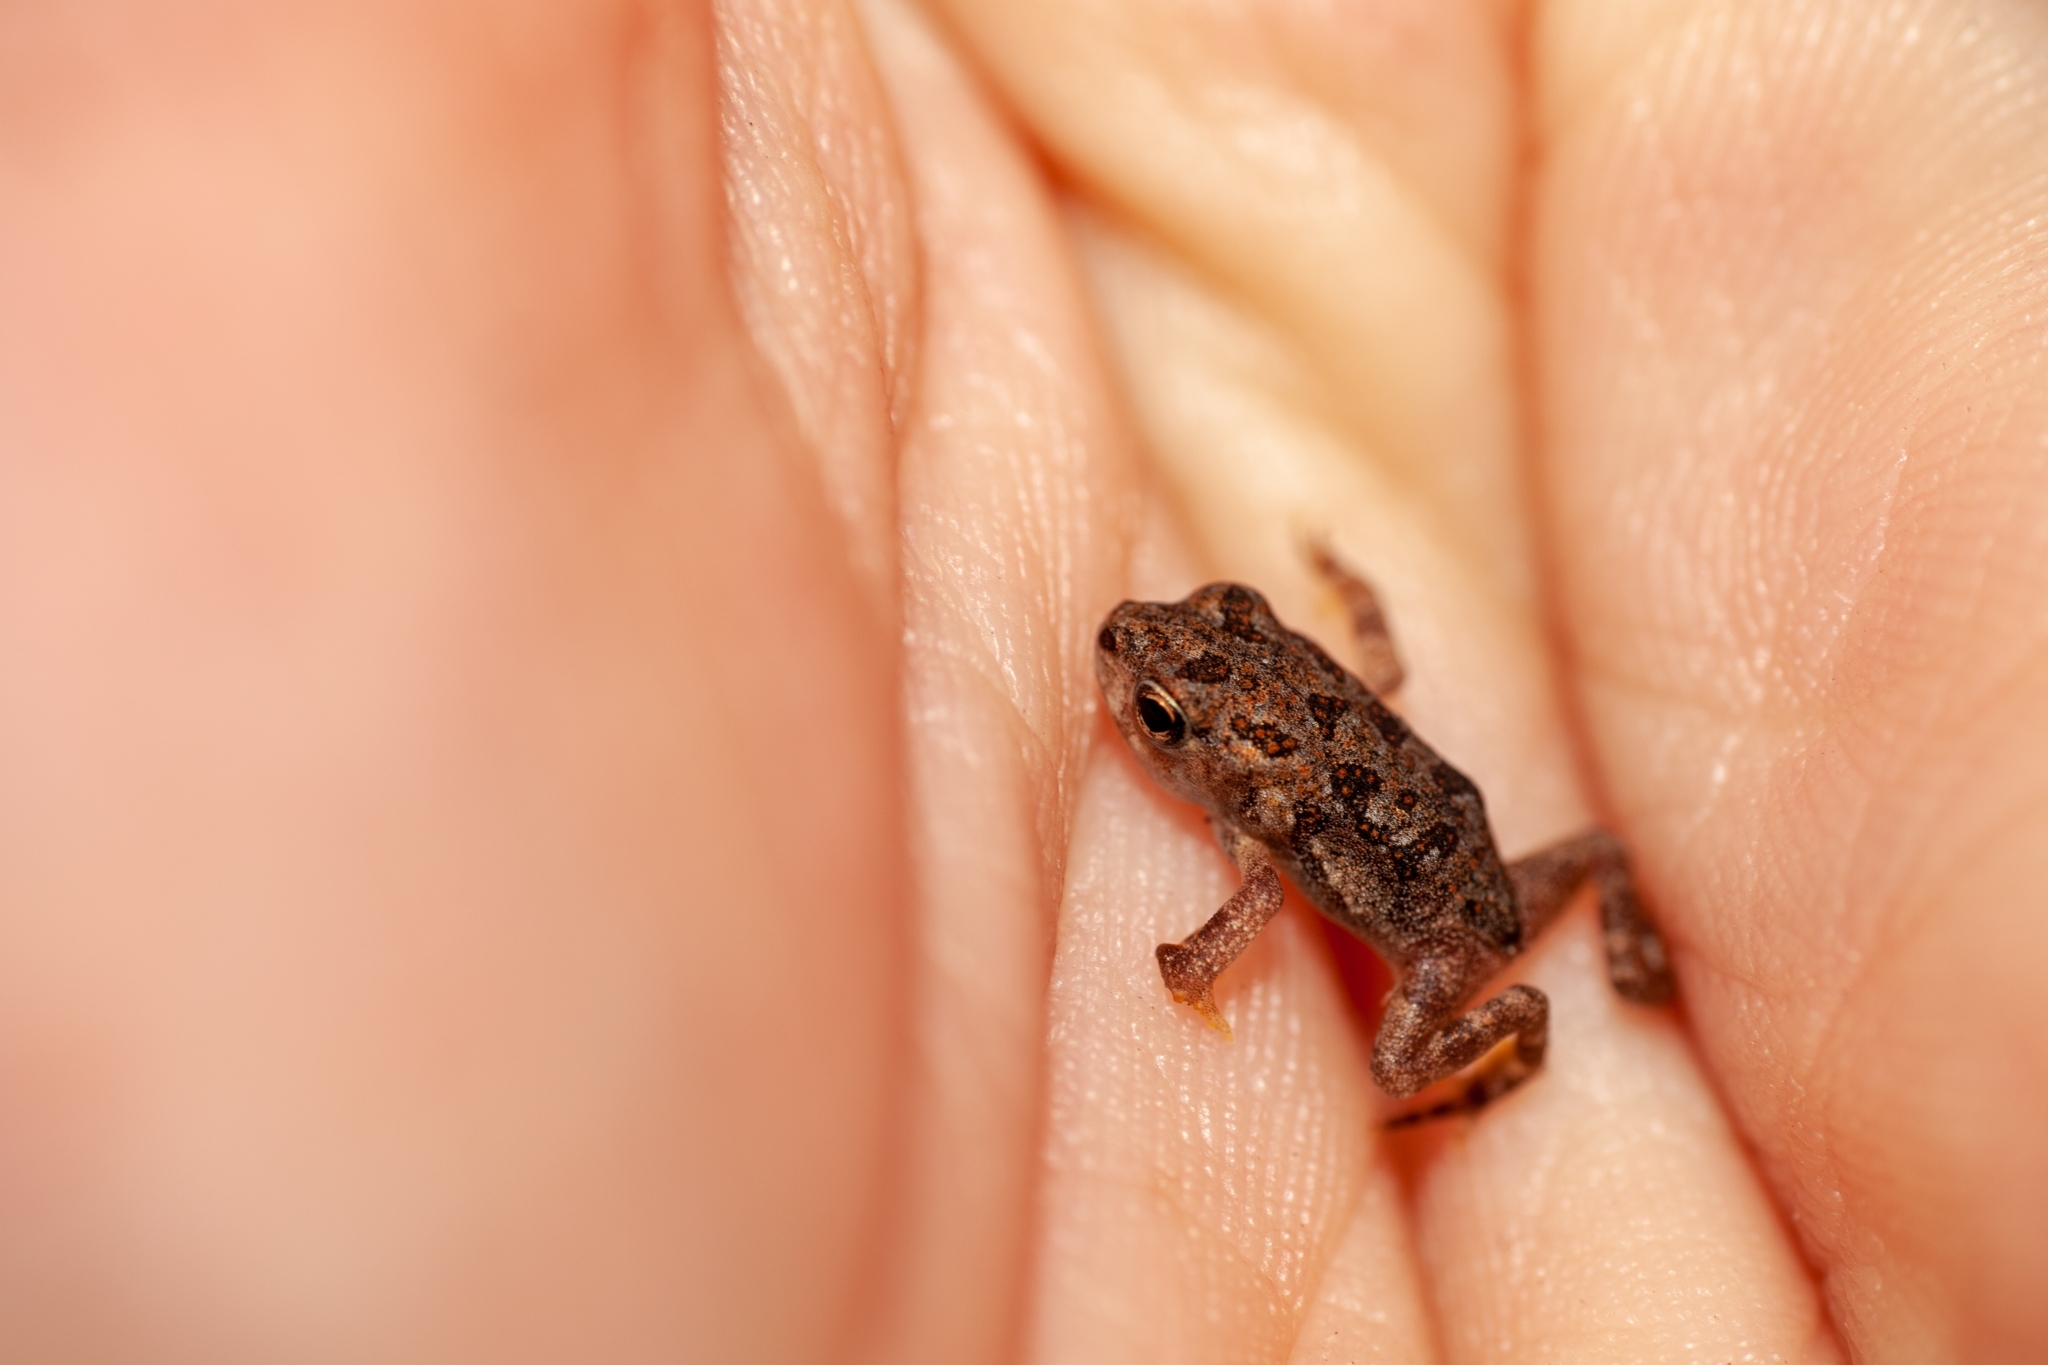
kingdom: Animalia
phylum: Chordata
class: Amphibia
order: Anura
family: Bufonidae
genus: Anaxyrus
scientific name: Anaxyrus terrestris
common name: Southern toad
